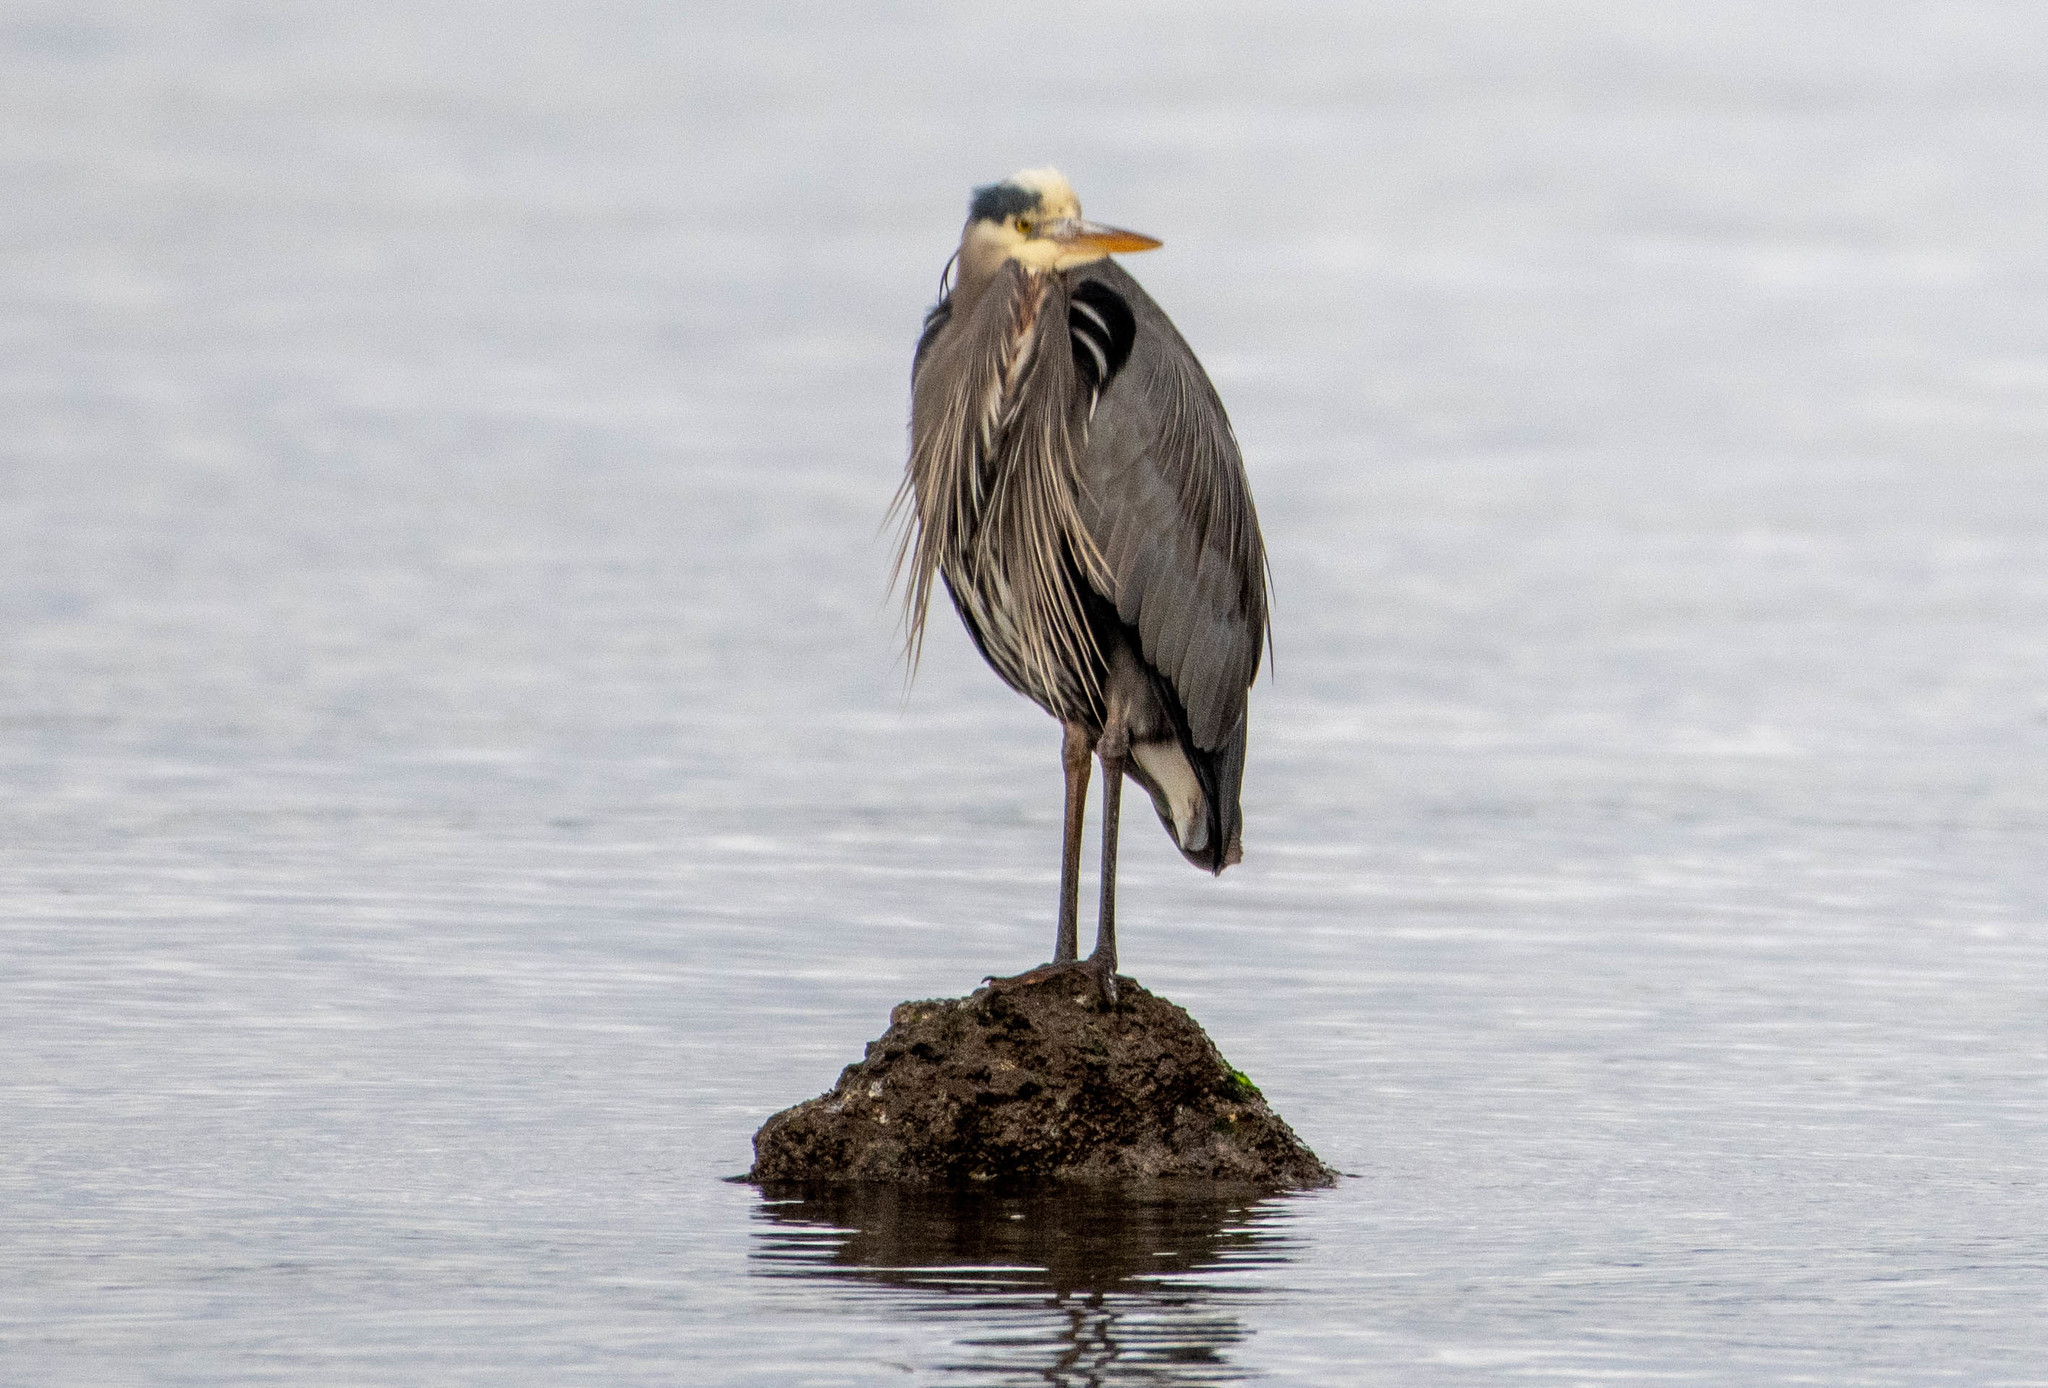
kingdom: Animalia
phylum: Chordata
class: Aves
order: Pelecaniformes
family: Ardeidae
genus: Ardea
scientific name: Ardea herodias
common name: Great blue heron
